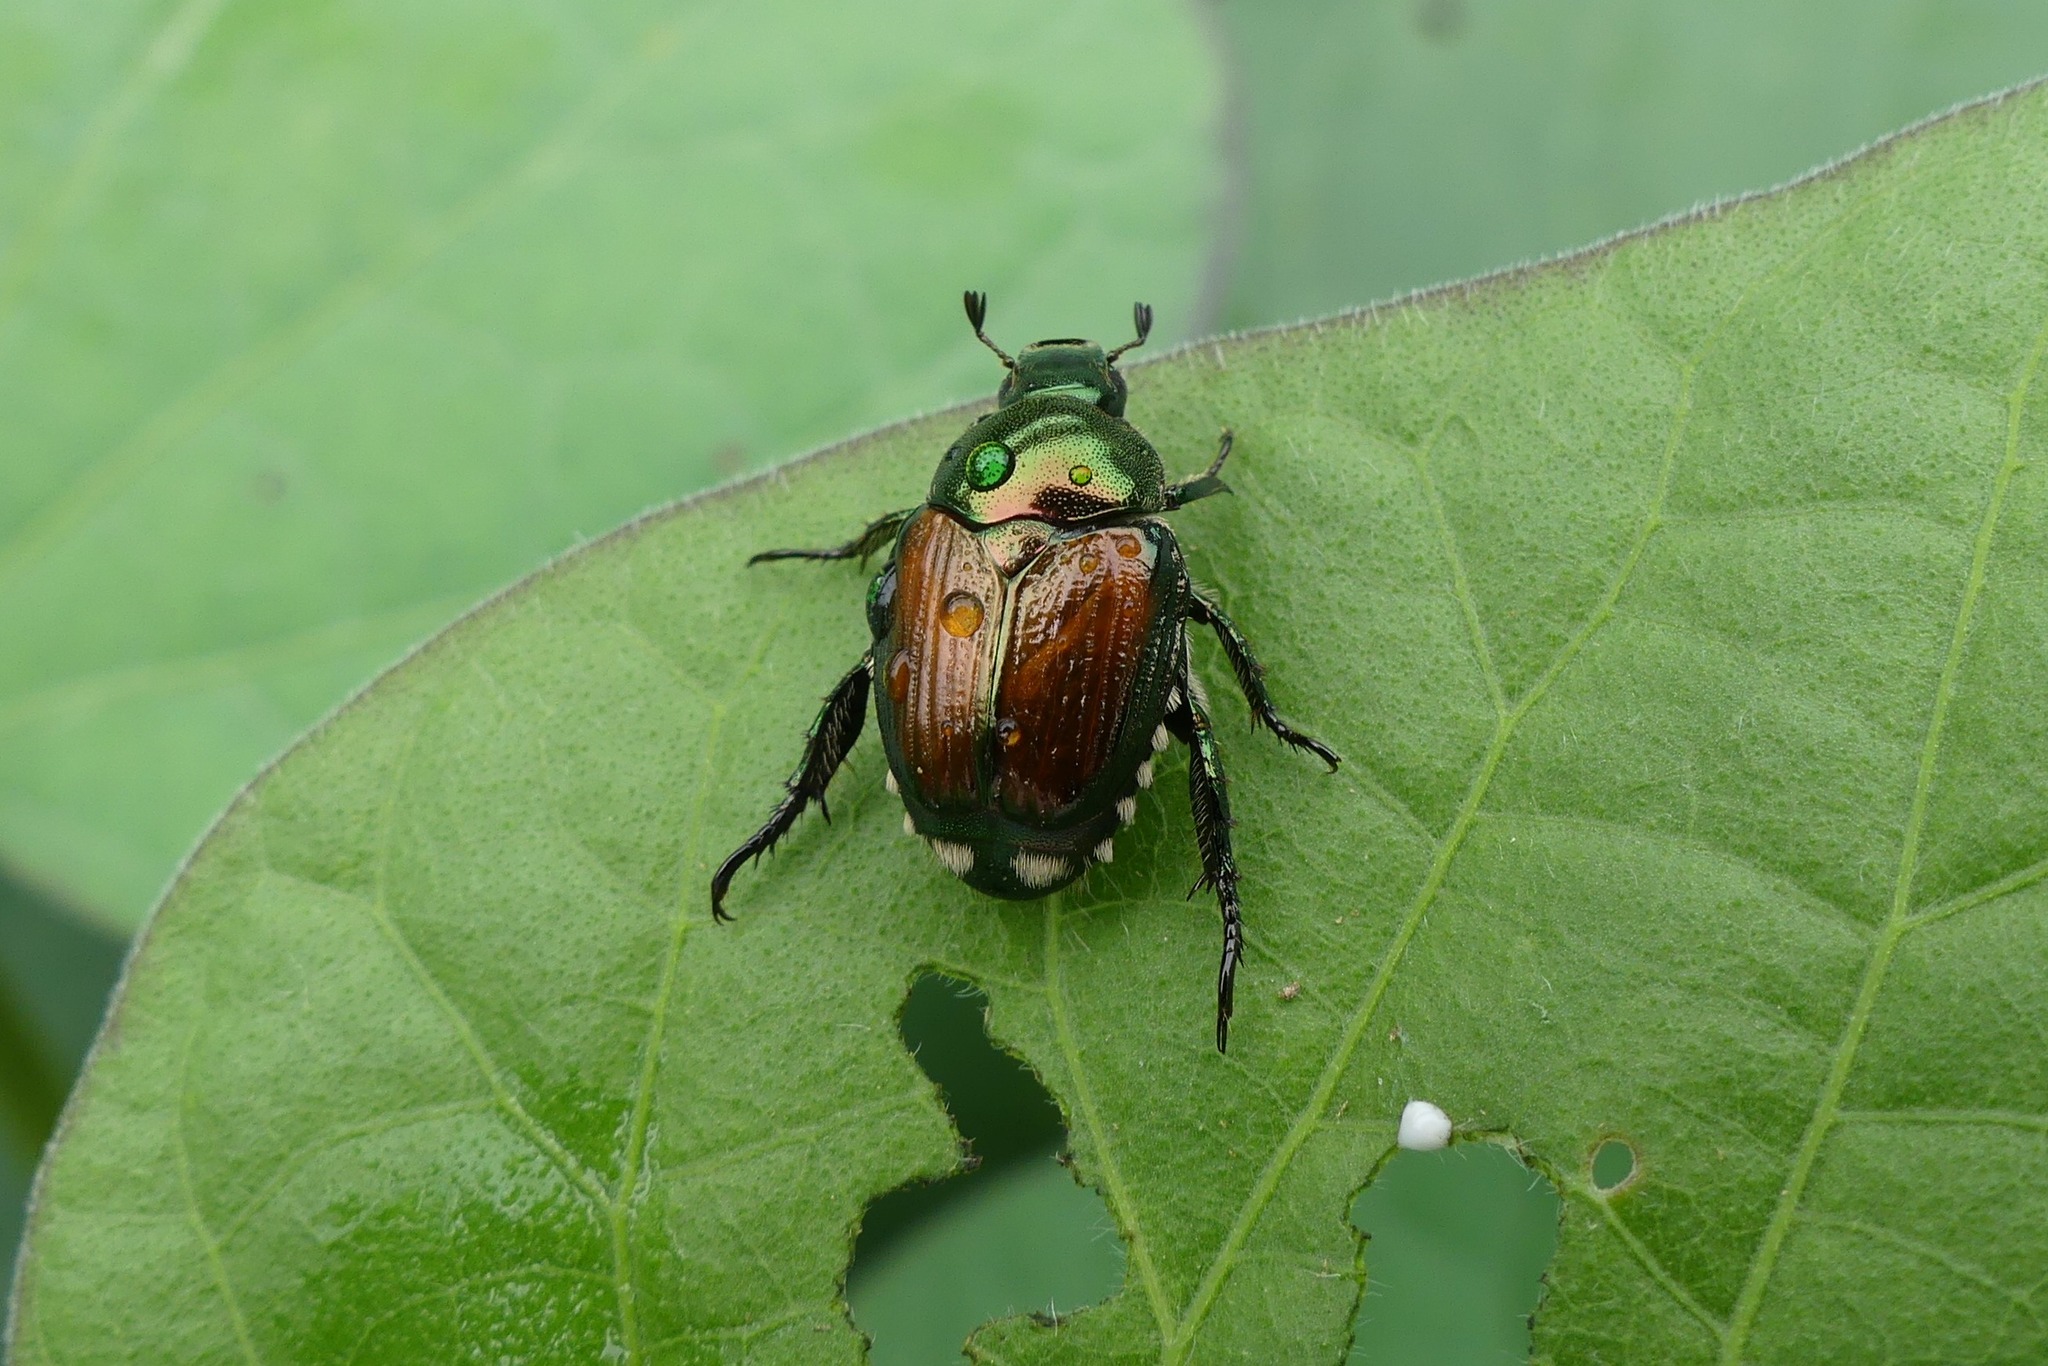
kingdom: Animalia
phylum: Arthropoda
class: Insecta
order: Coleoptera
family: Scarabaeidae
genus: Popillia
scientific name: Popillia japonica
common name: Japanese beetle
